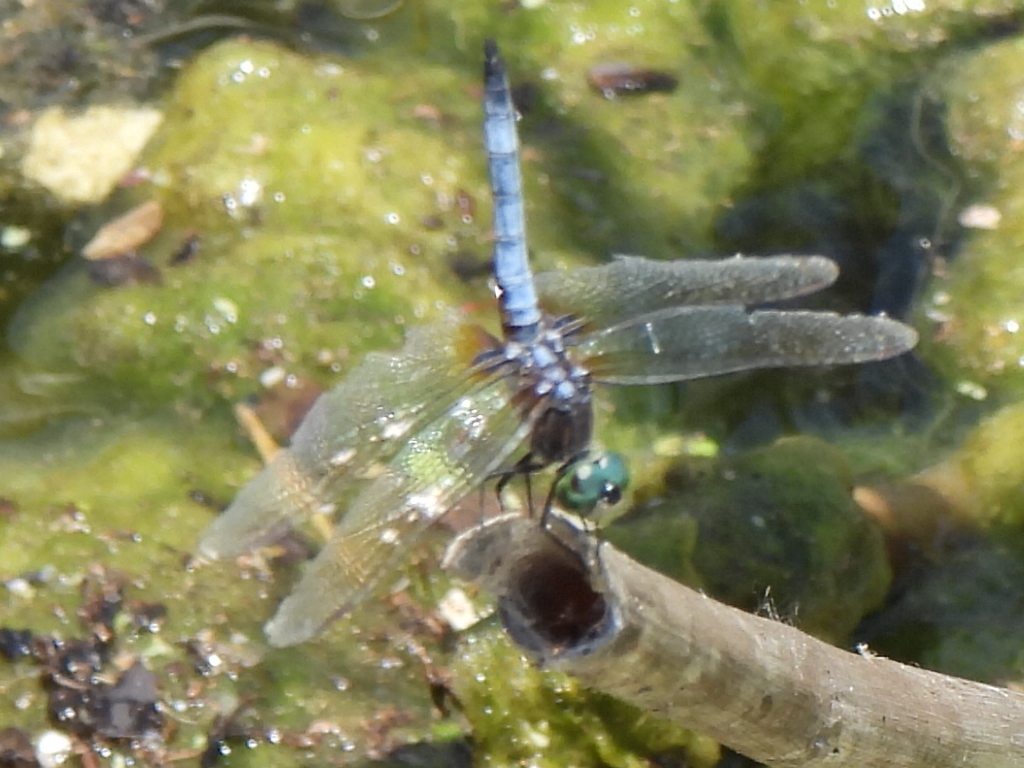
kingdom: Animalia
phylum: Arthropoda
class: Insecta
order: Odonata
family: Libellulidae
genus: Pachydiplax
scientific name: Pachydiplax longipennis
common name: Blue dasher
